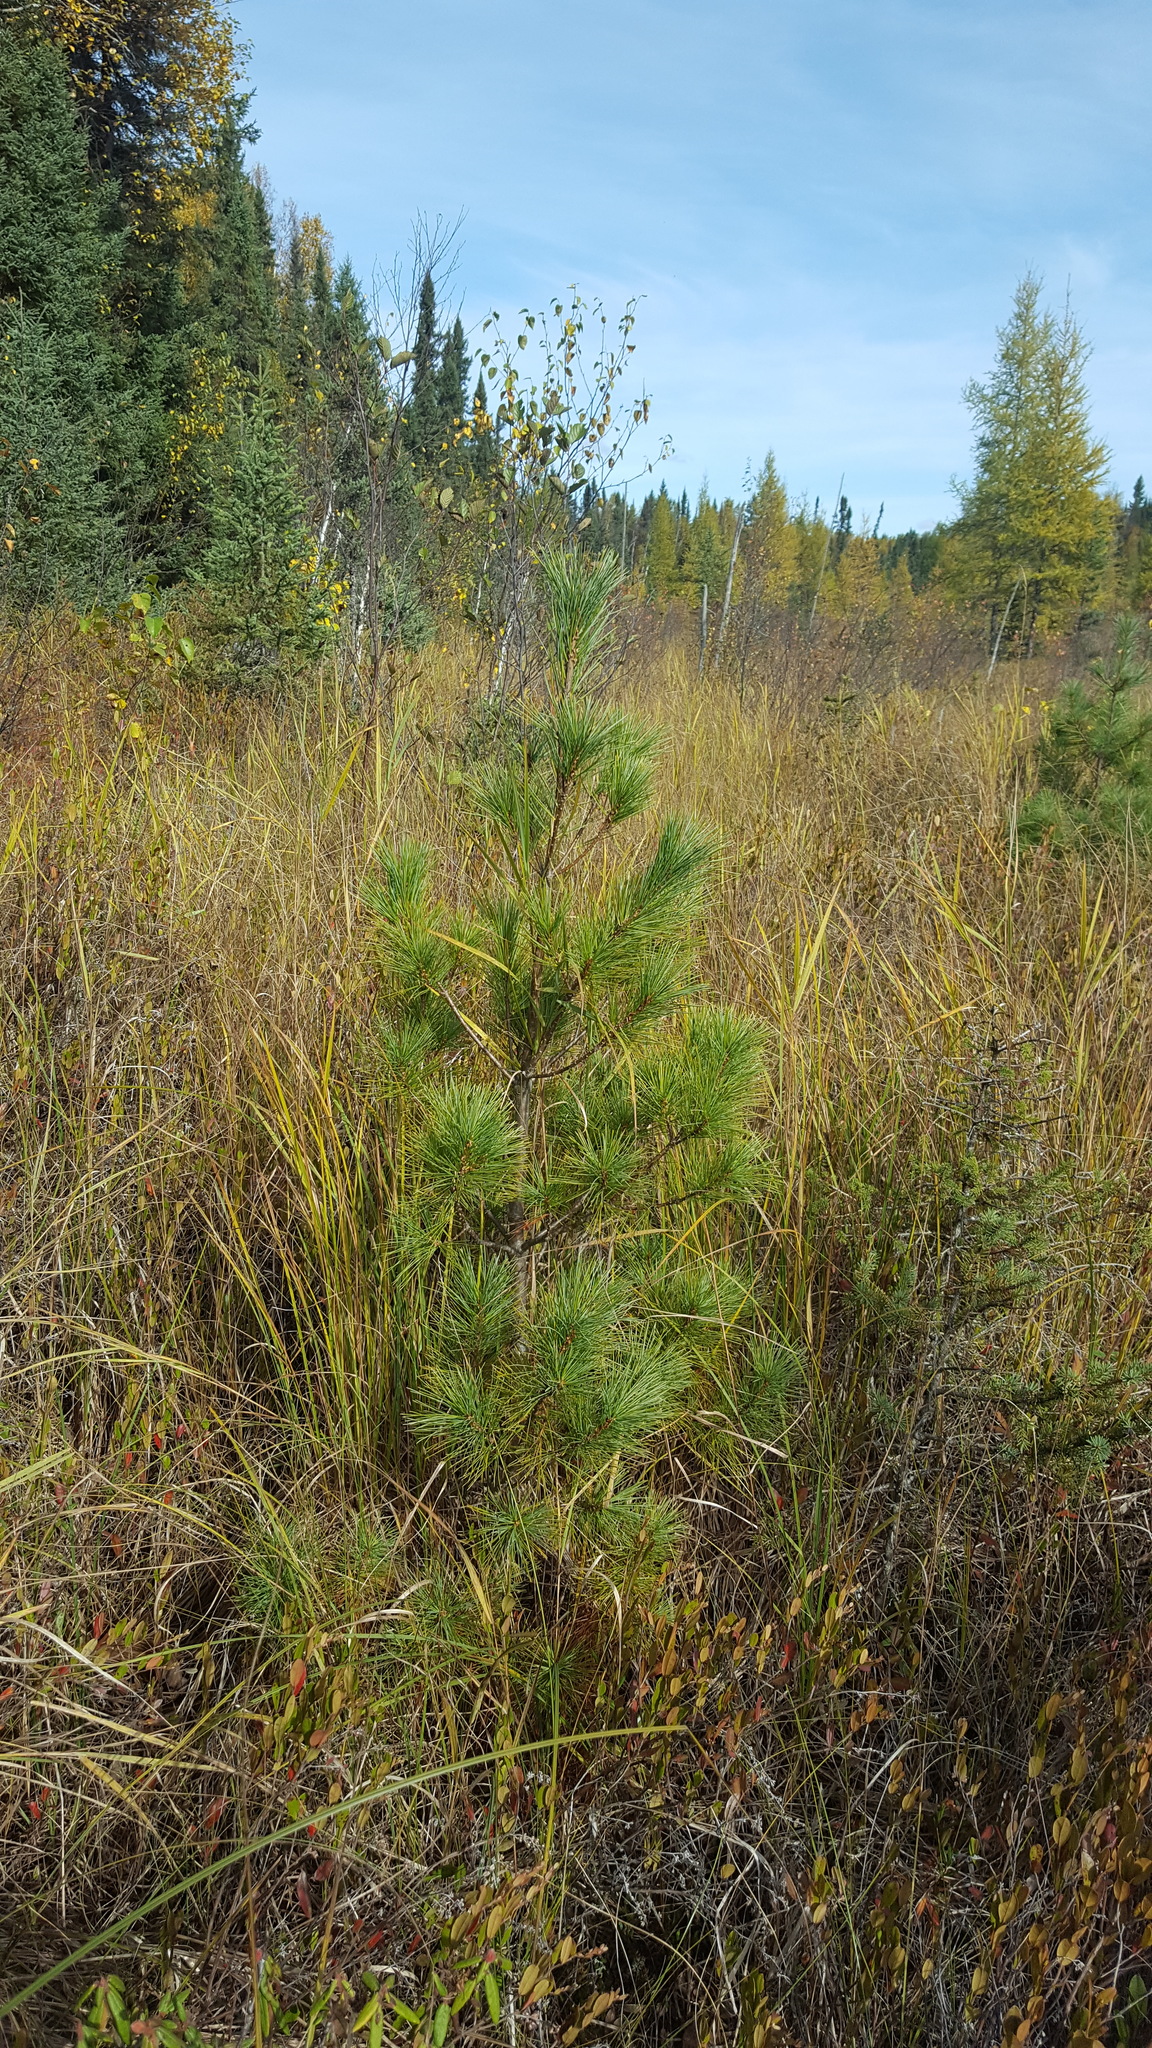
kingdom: Plantae
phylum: Tracheophyta
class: Pinopsida
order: Pinales
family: Pinaceae
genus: Pinus
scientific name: Pinus strobus
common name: Weymouth pine
